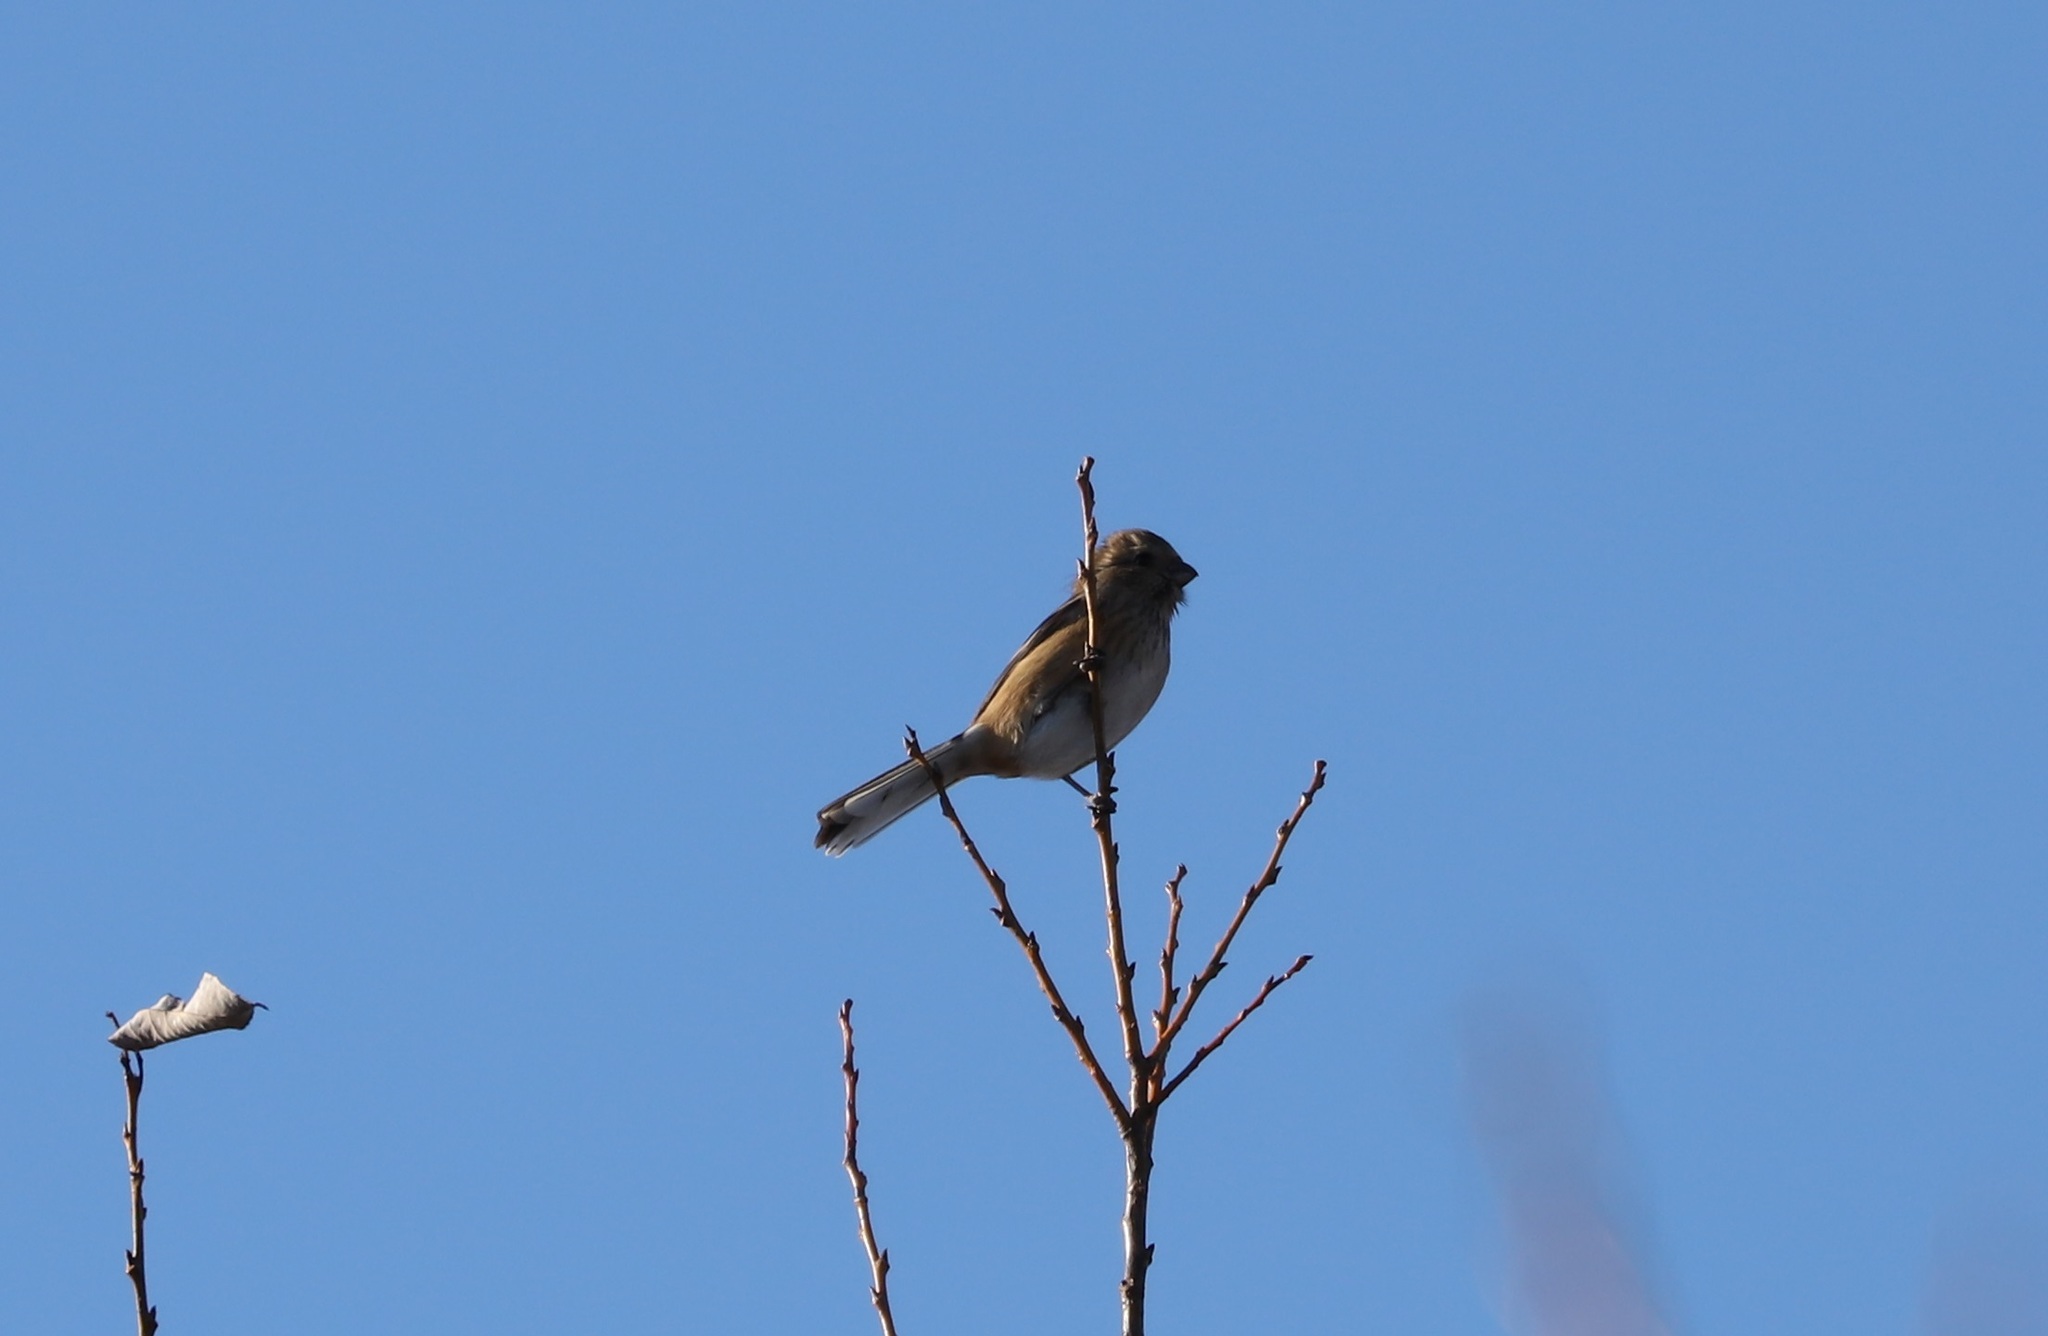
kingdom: Animalia
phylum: Chordata
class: Aves
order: Passeriformes
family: Fringillidae
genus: Carpodacus
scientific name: Carpodacus sibiricus
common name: Long-tailed rosefinch
